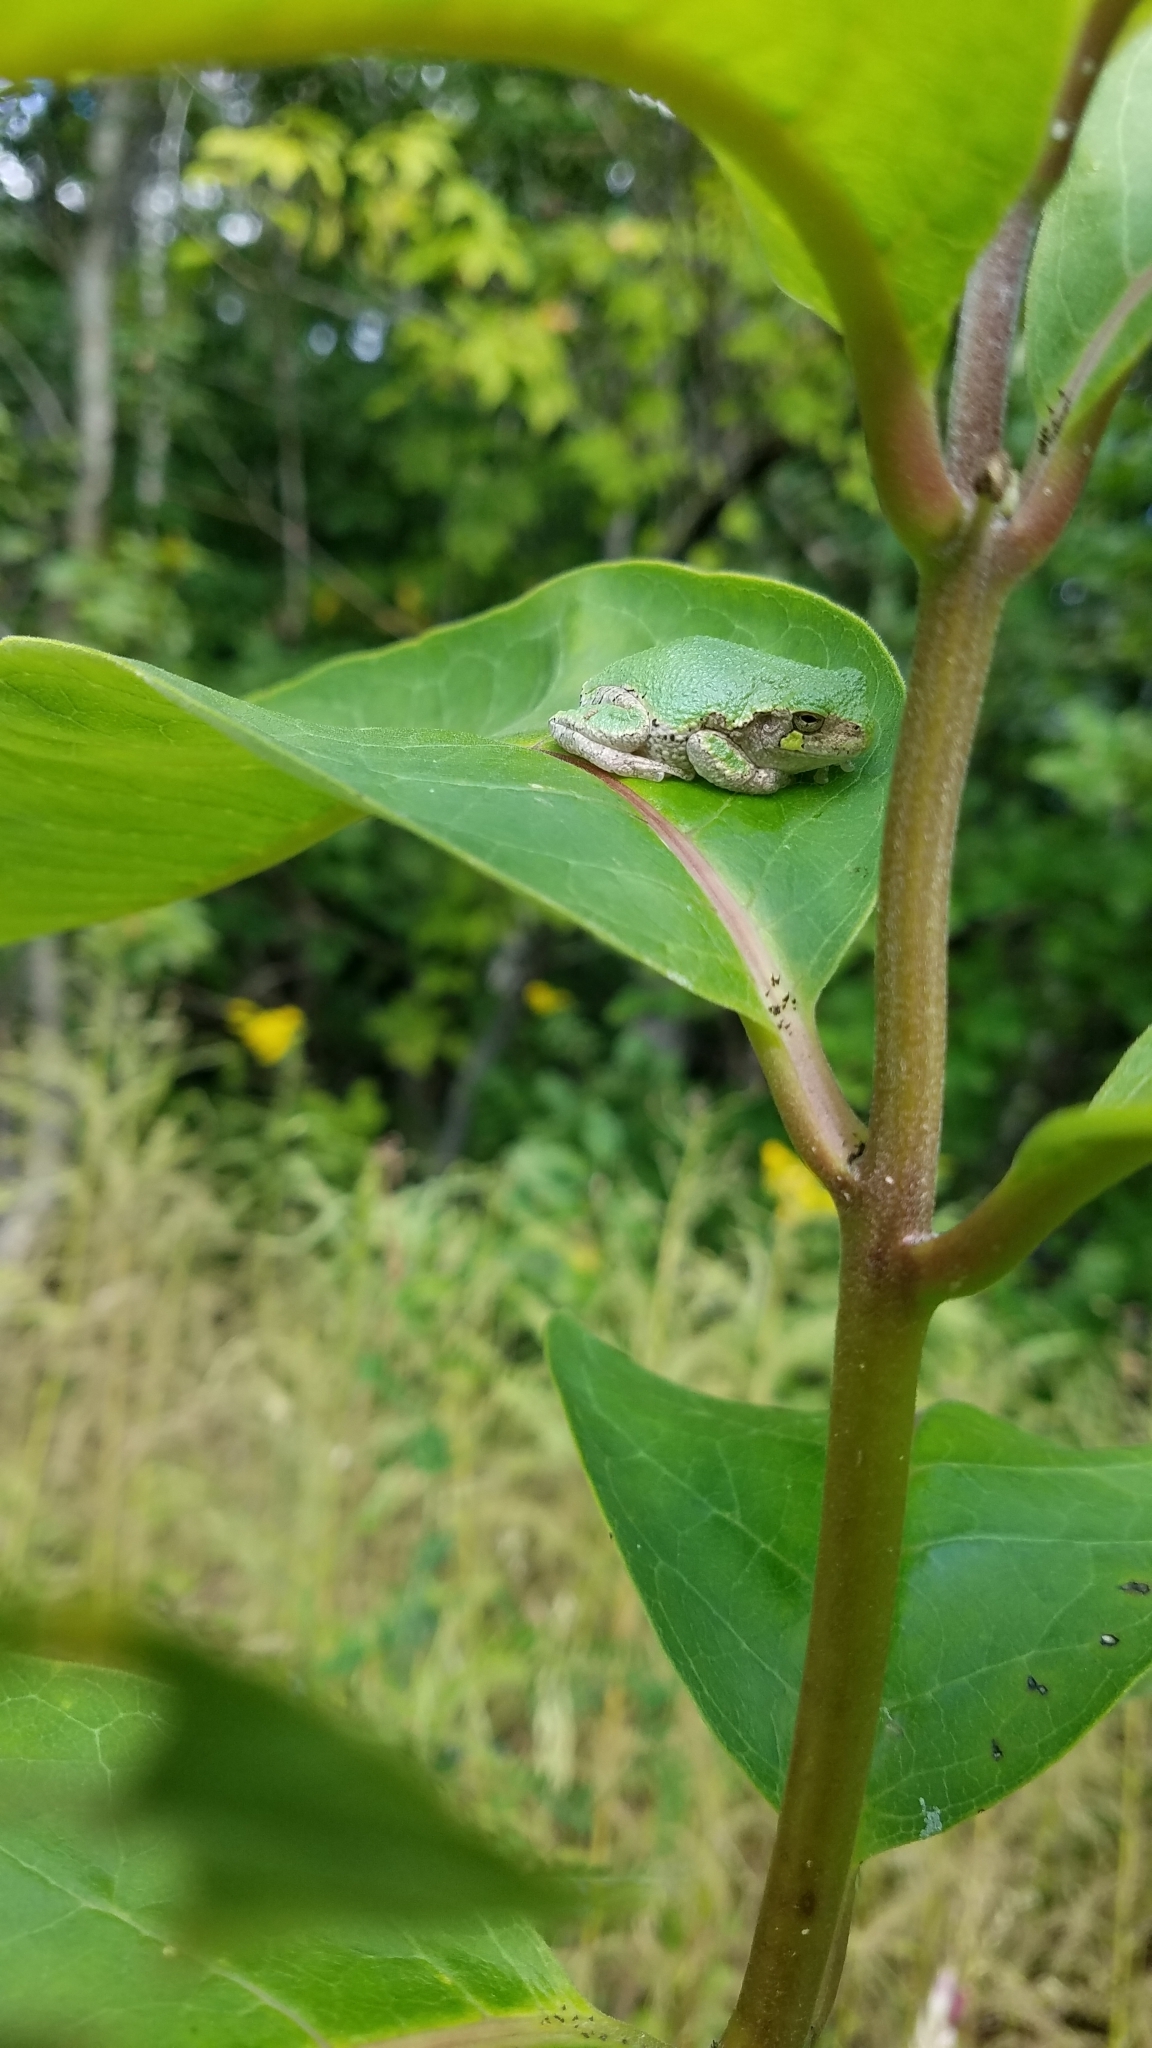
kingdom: Animalia
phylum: Chordata
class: Amphibia
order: Anura
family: Hylidae
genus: Dryophytes
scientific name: Dryophytes versicolor
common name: Gray treefrog
